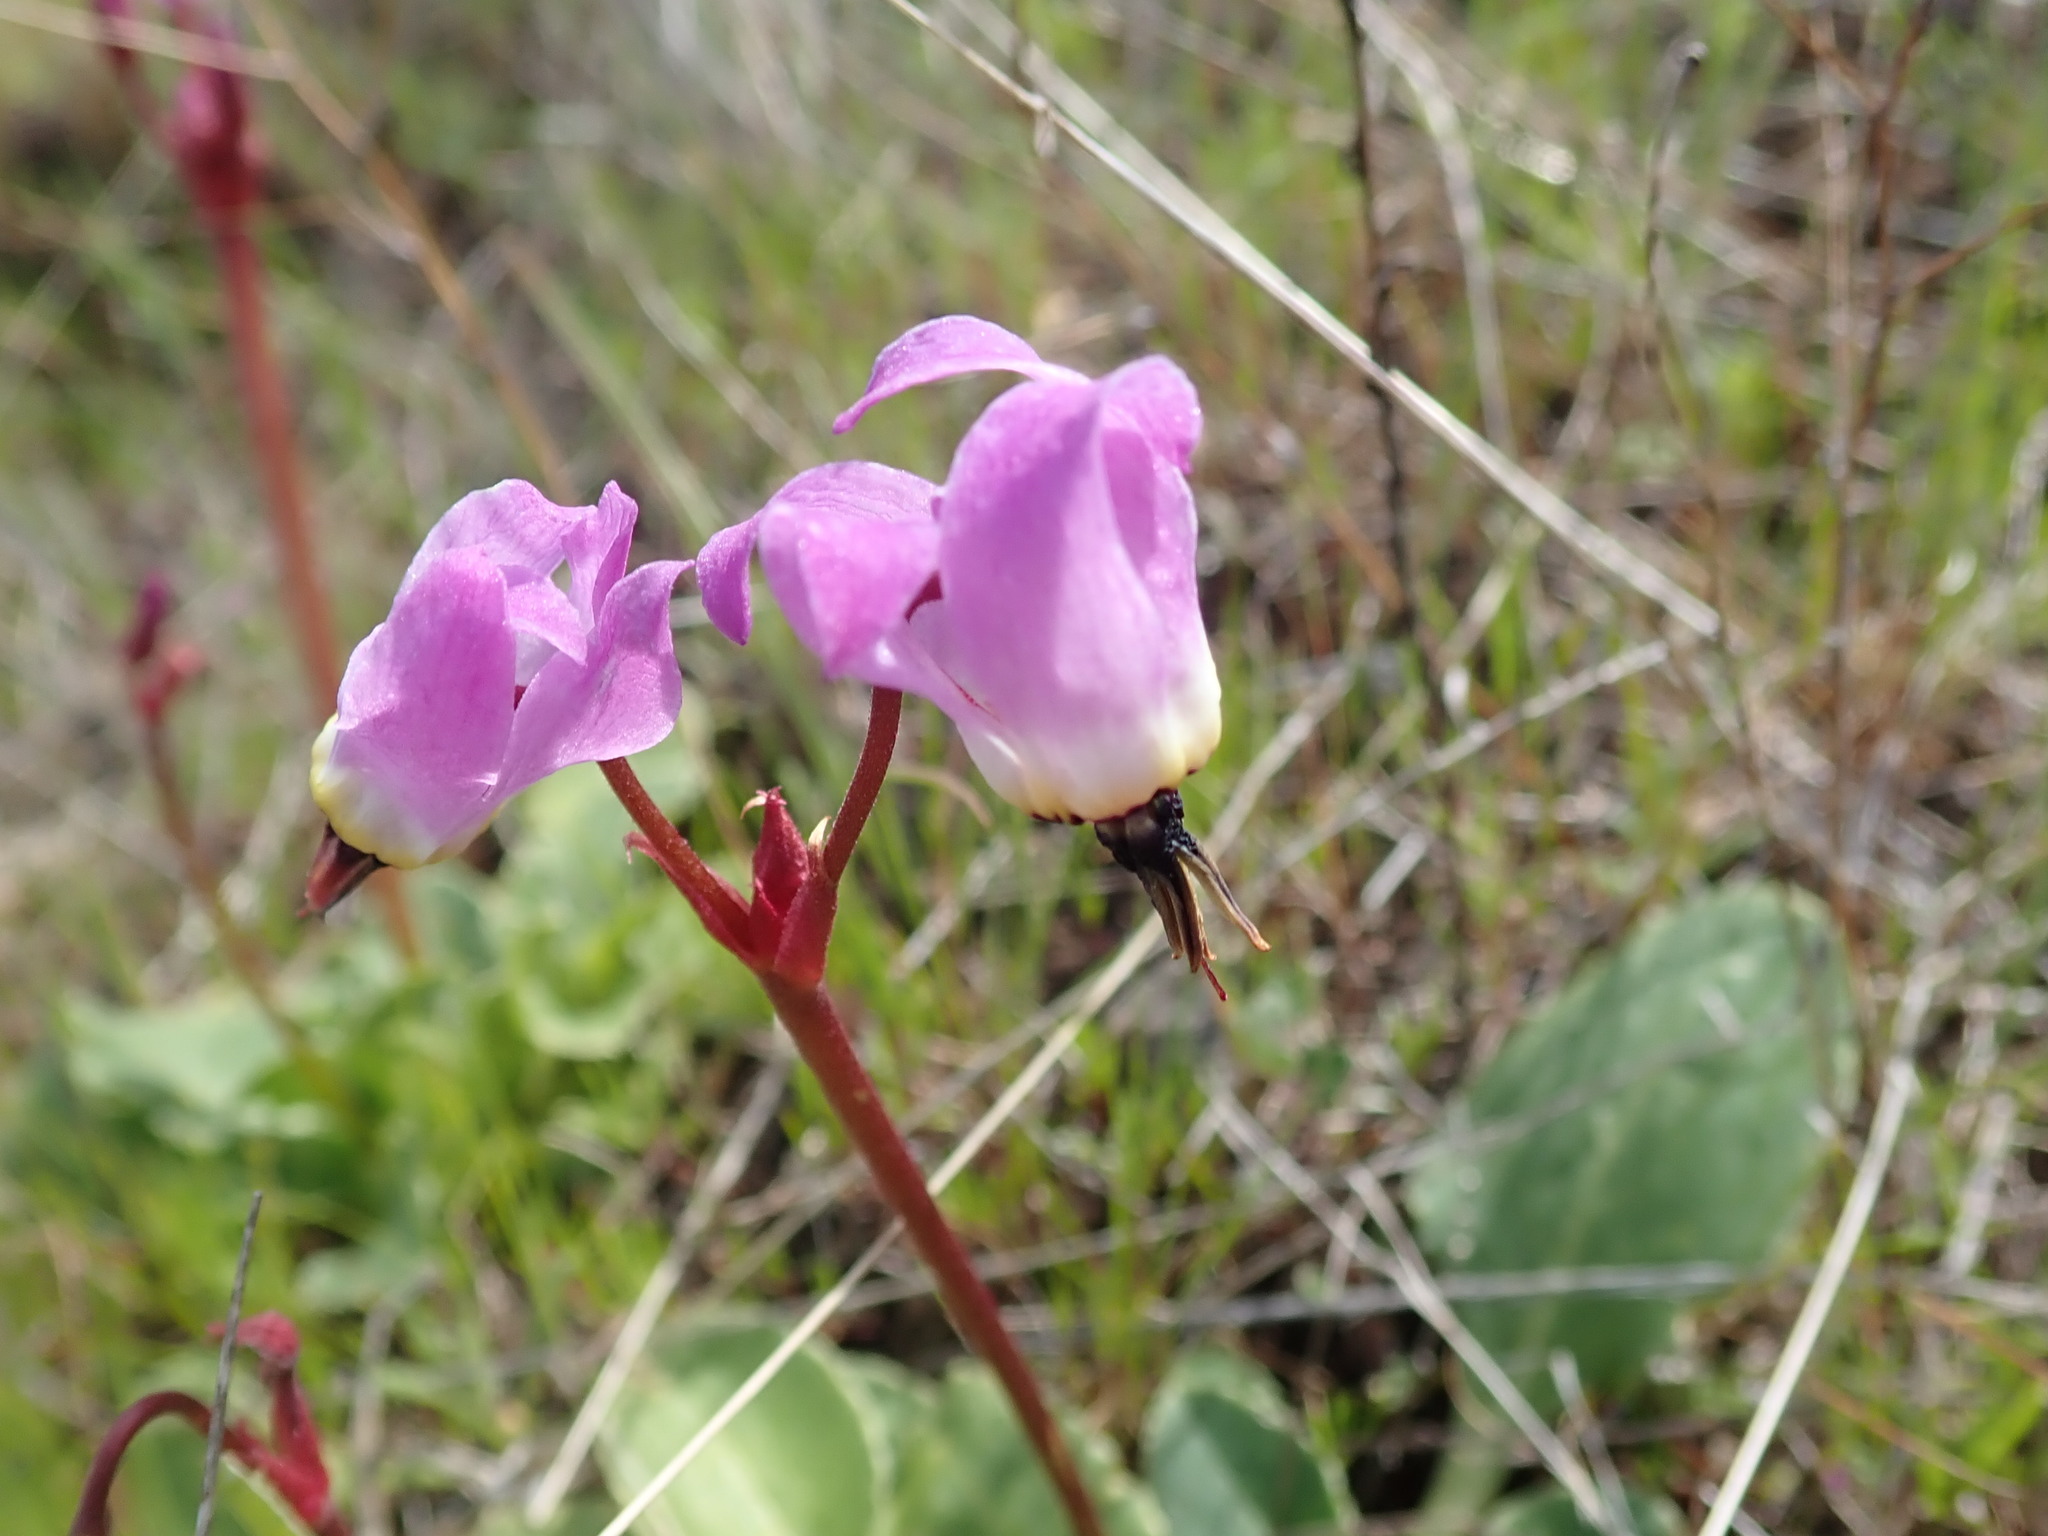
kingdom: Plantae
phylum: Tracheophyta
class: Magnoliopsida
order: Ericales
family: Primulaceae
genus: Dodecatheon
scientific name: Dodecatheon hendersonii
